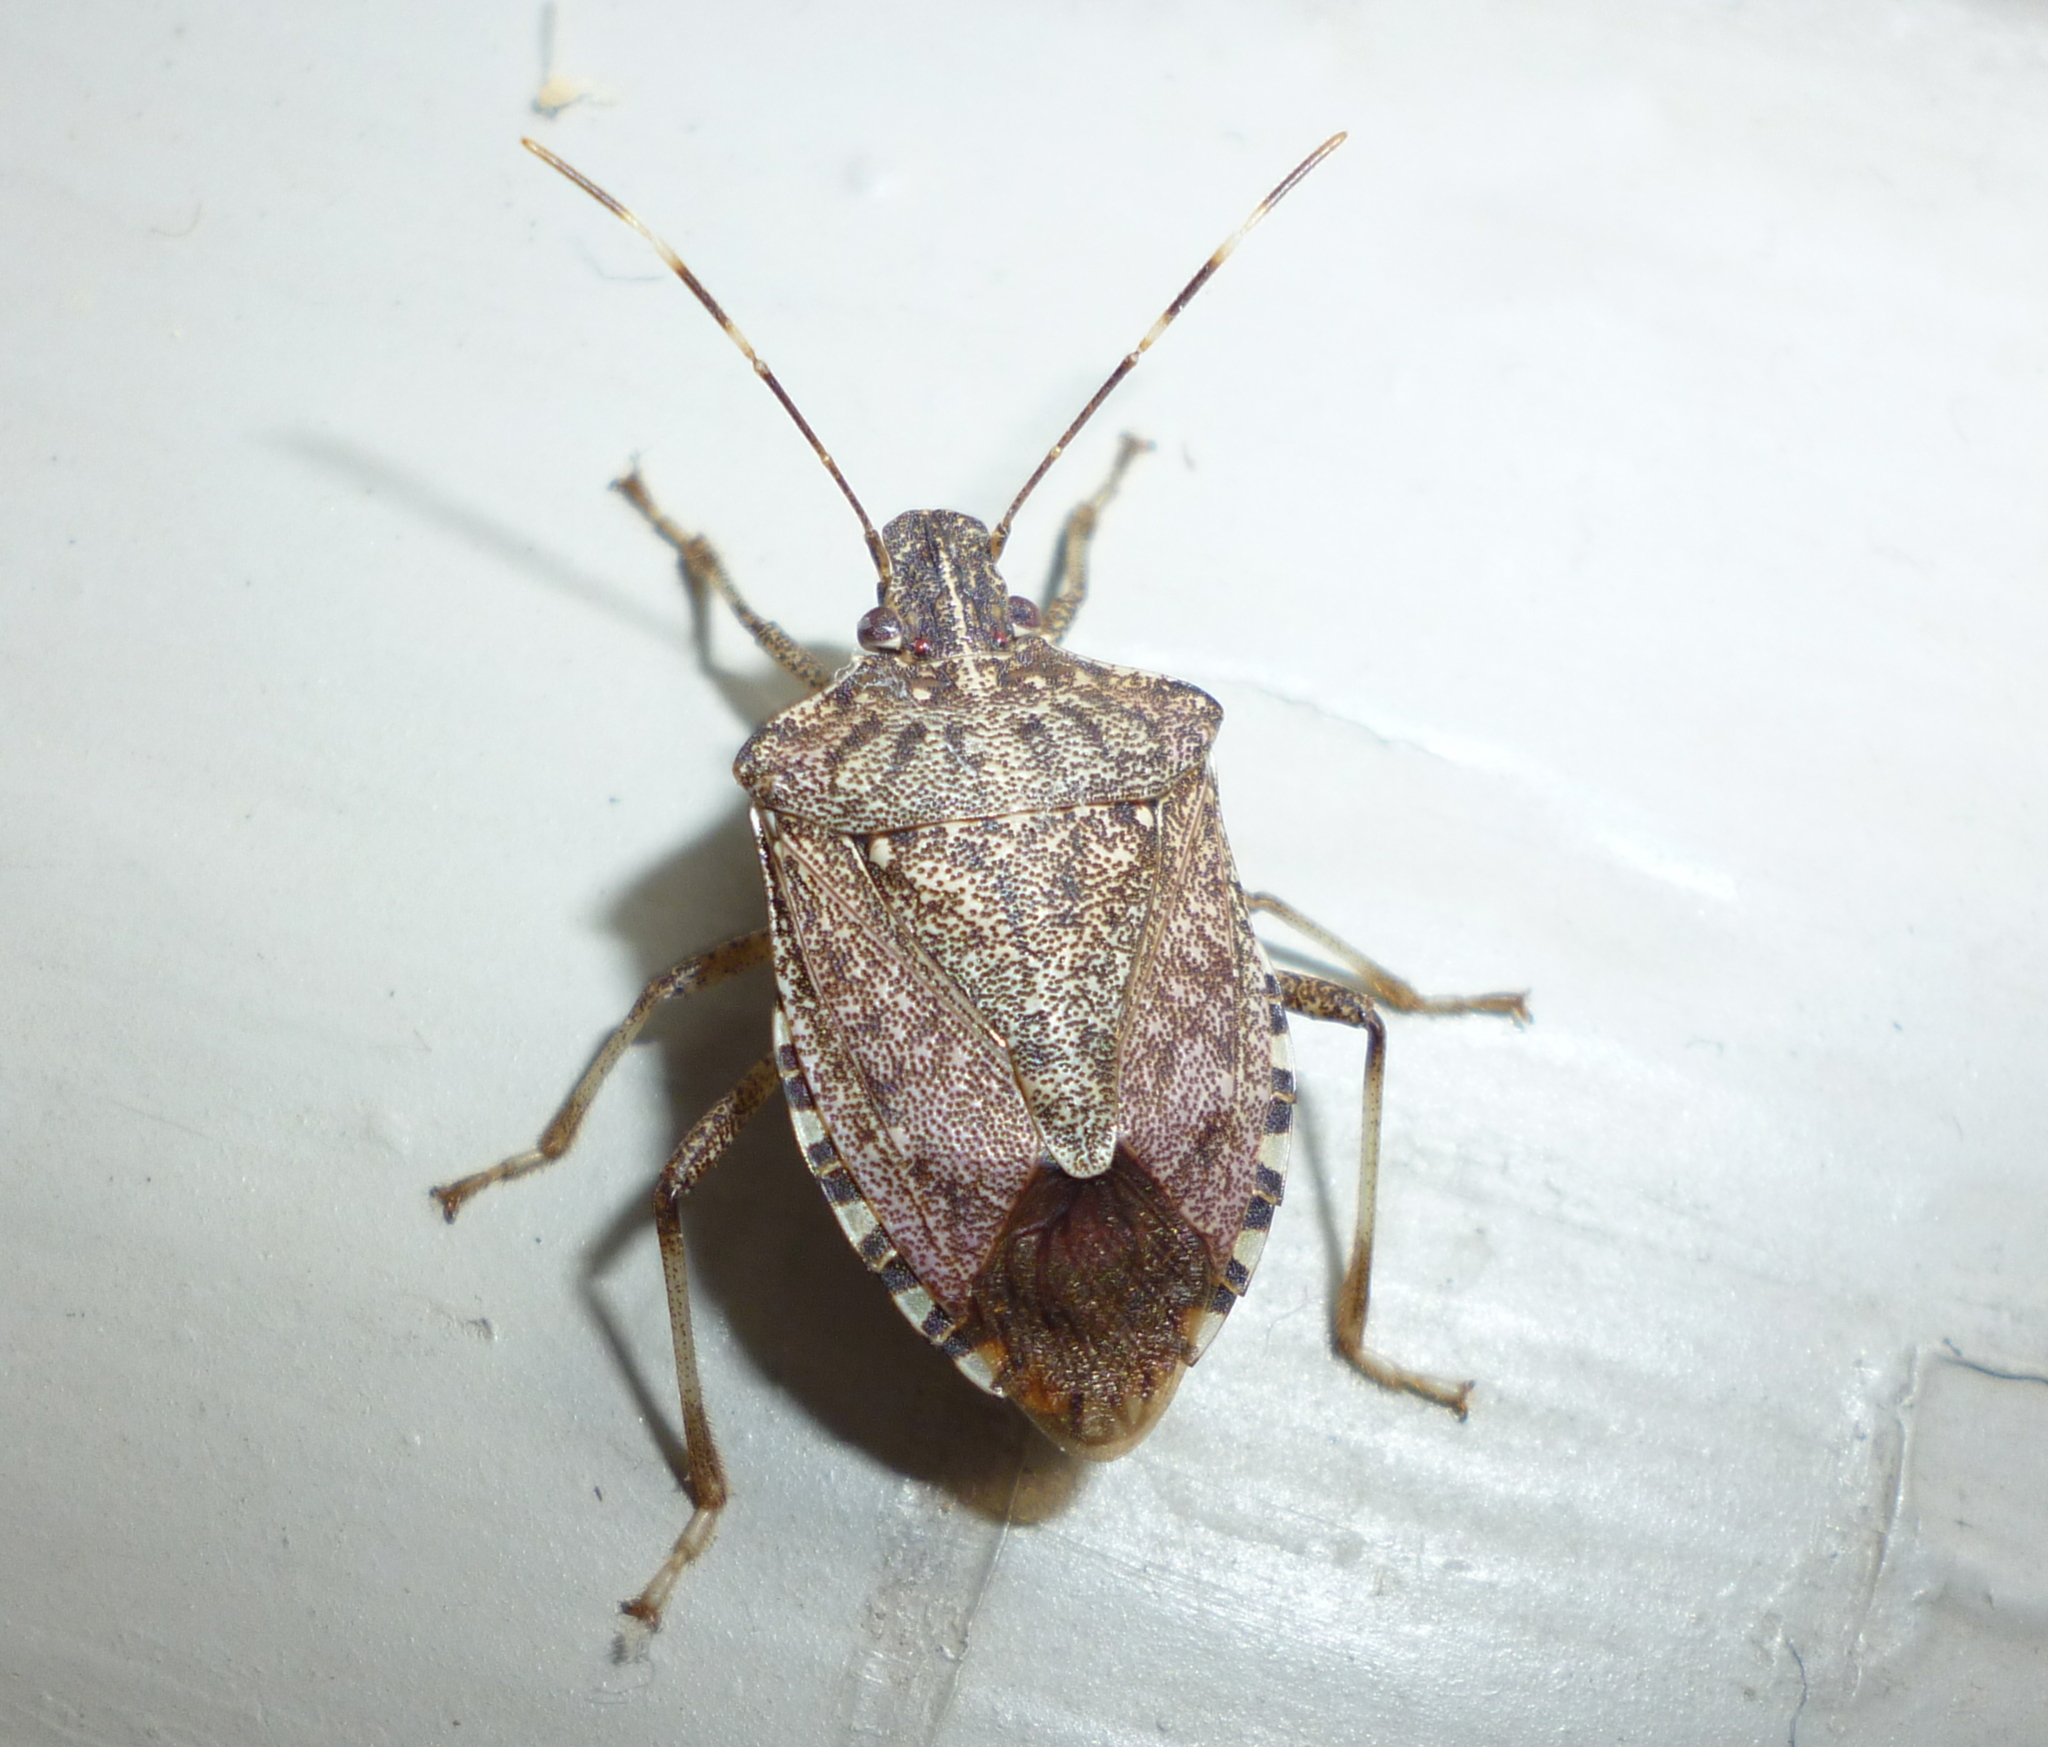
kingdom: Animalia
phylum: Arthropoda
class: Insecta
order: Hemiptera
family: Pentatomidae
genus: Halyomorpha
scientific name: Halyomorpha halys
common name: Brown marmorated stink bug
